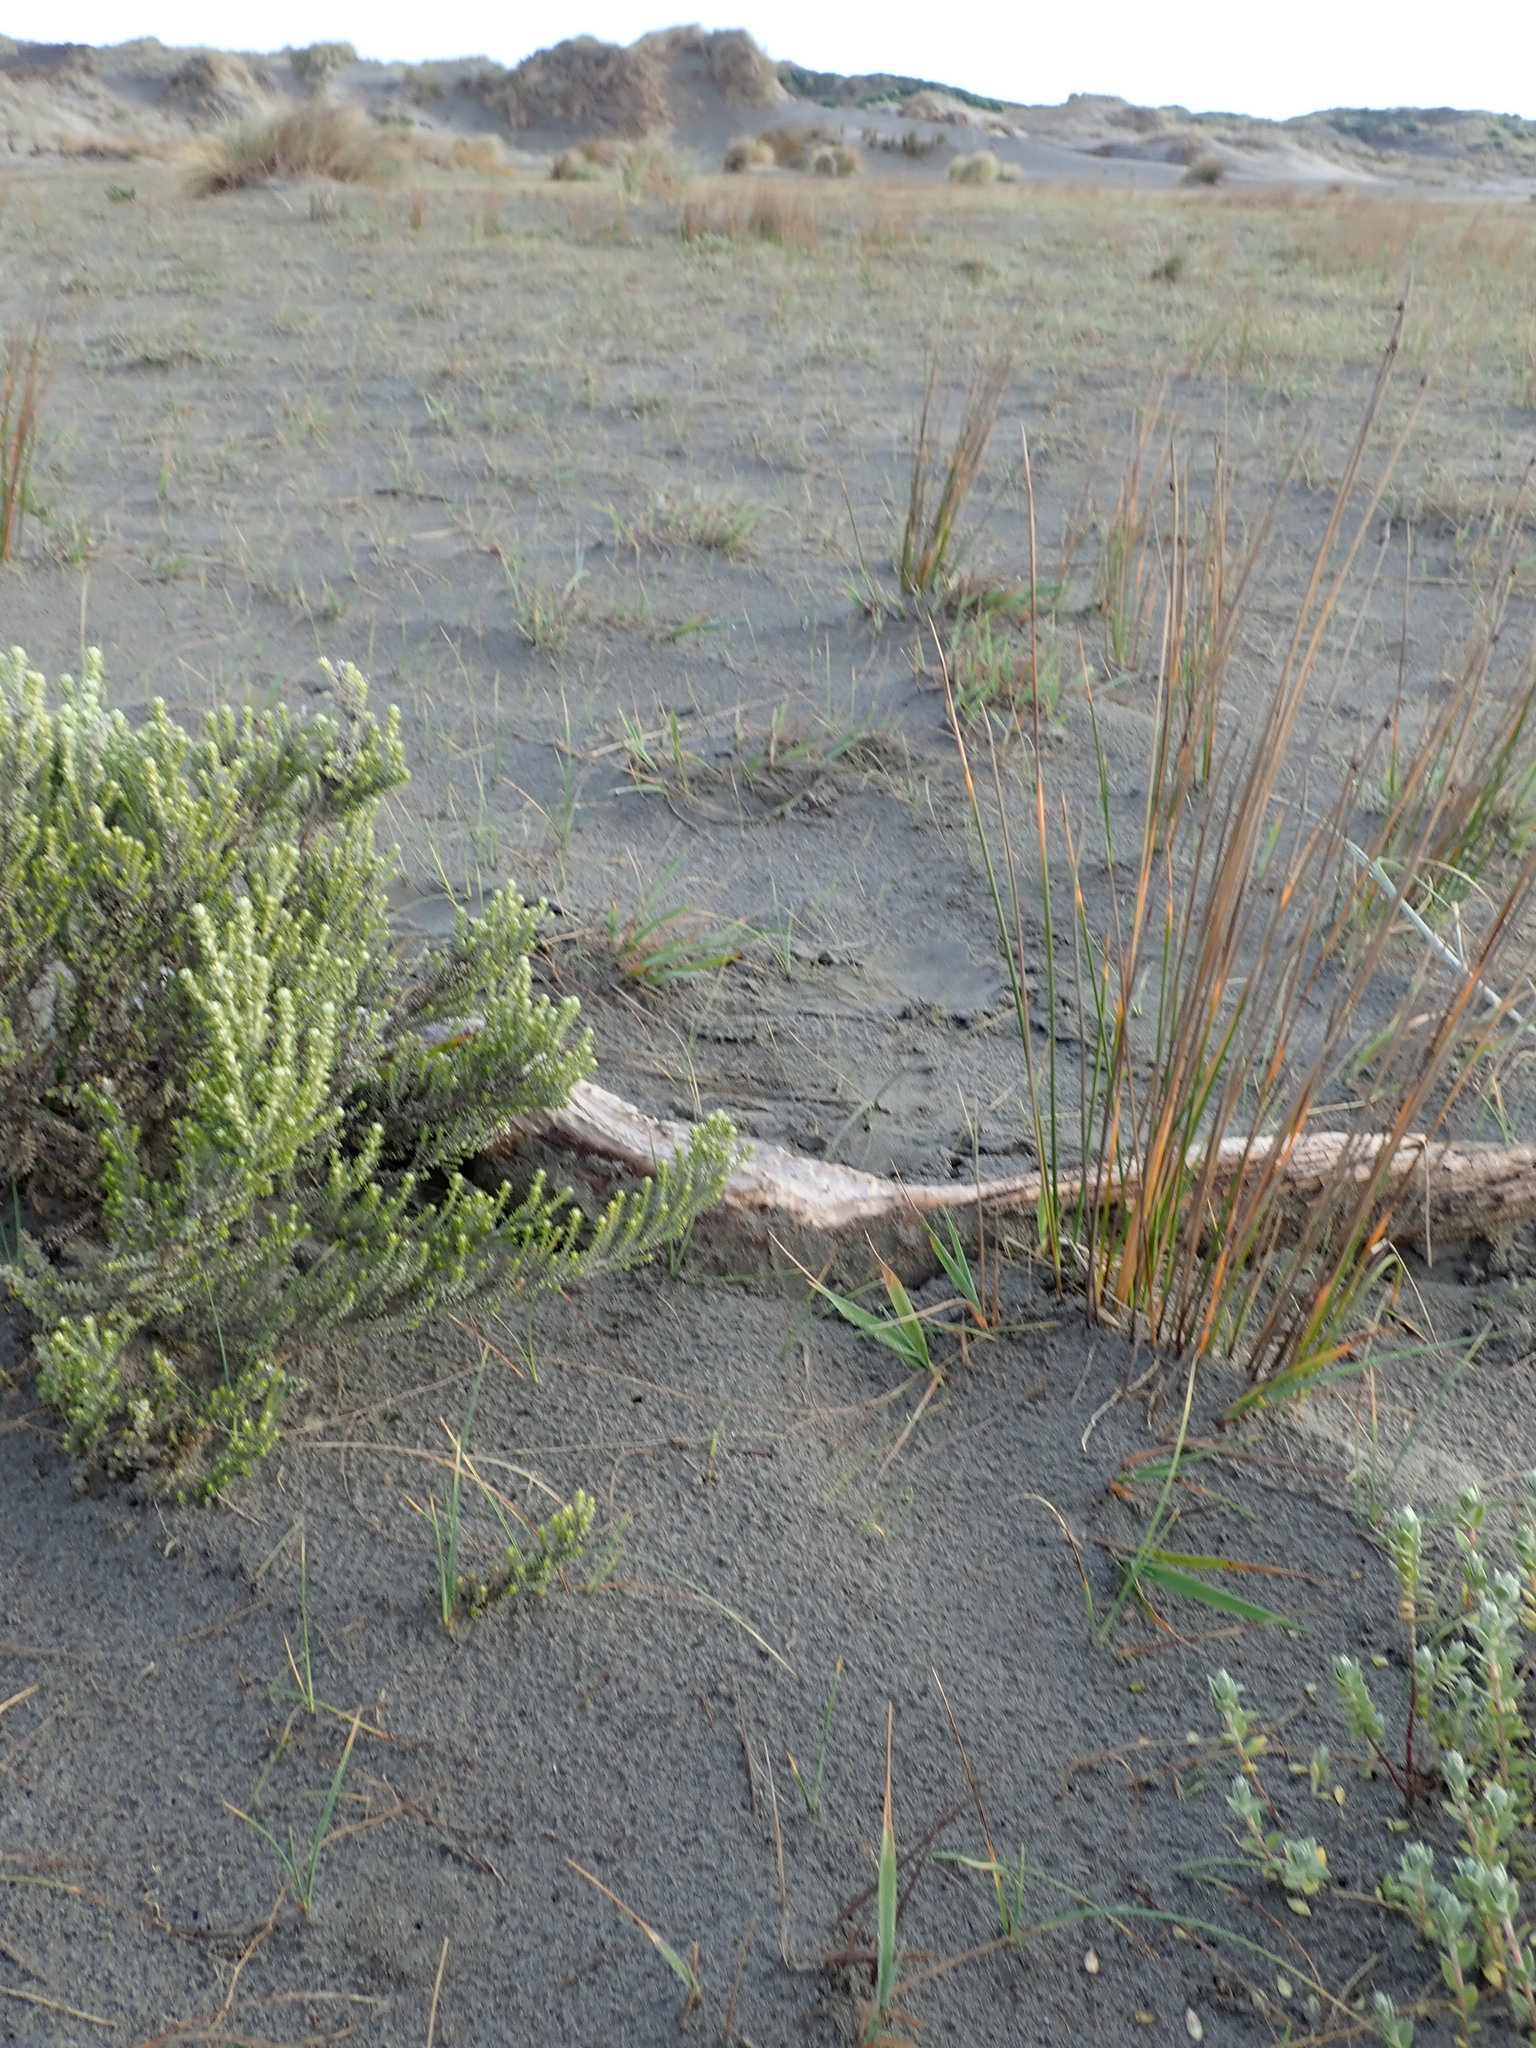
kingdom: Animalia
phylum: Arthropoda
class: Arachnida
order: Araneae
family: Theridiidae
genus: Steatoda
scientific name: Steatoda capensis
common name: Cobweb weaver
